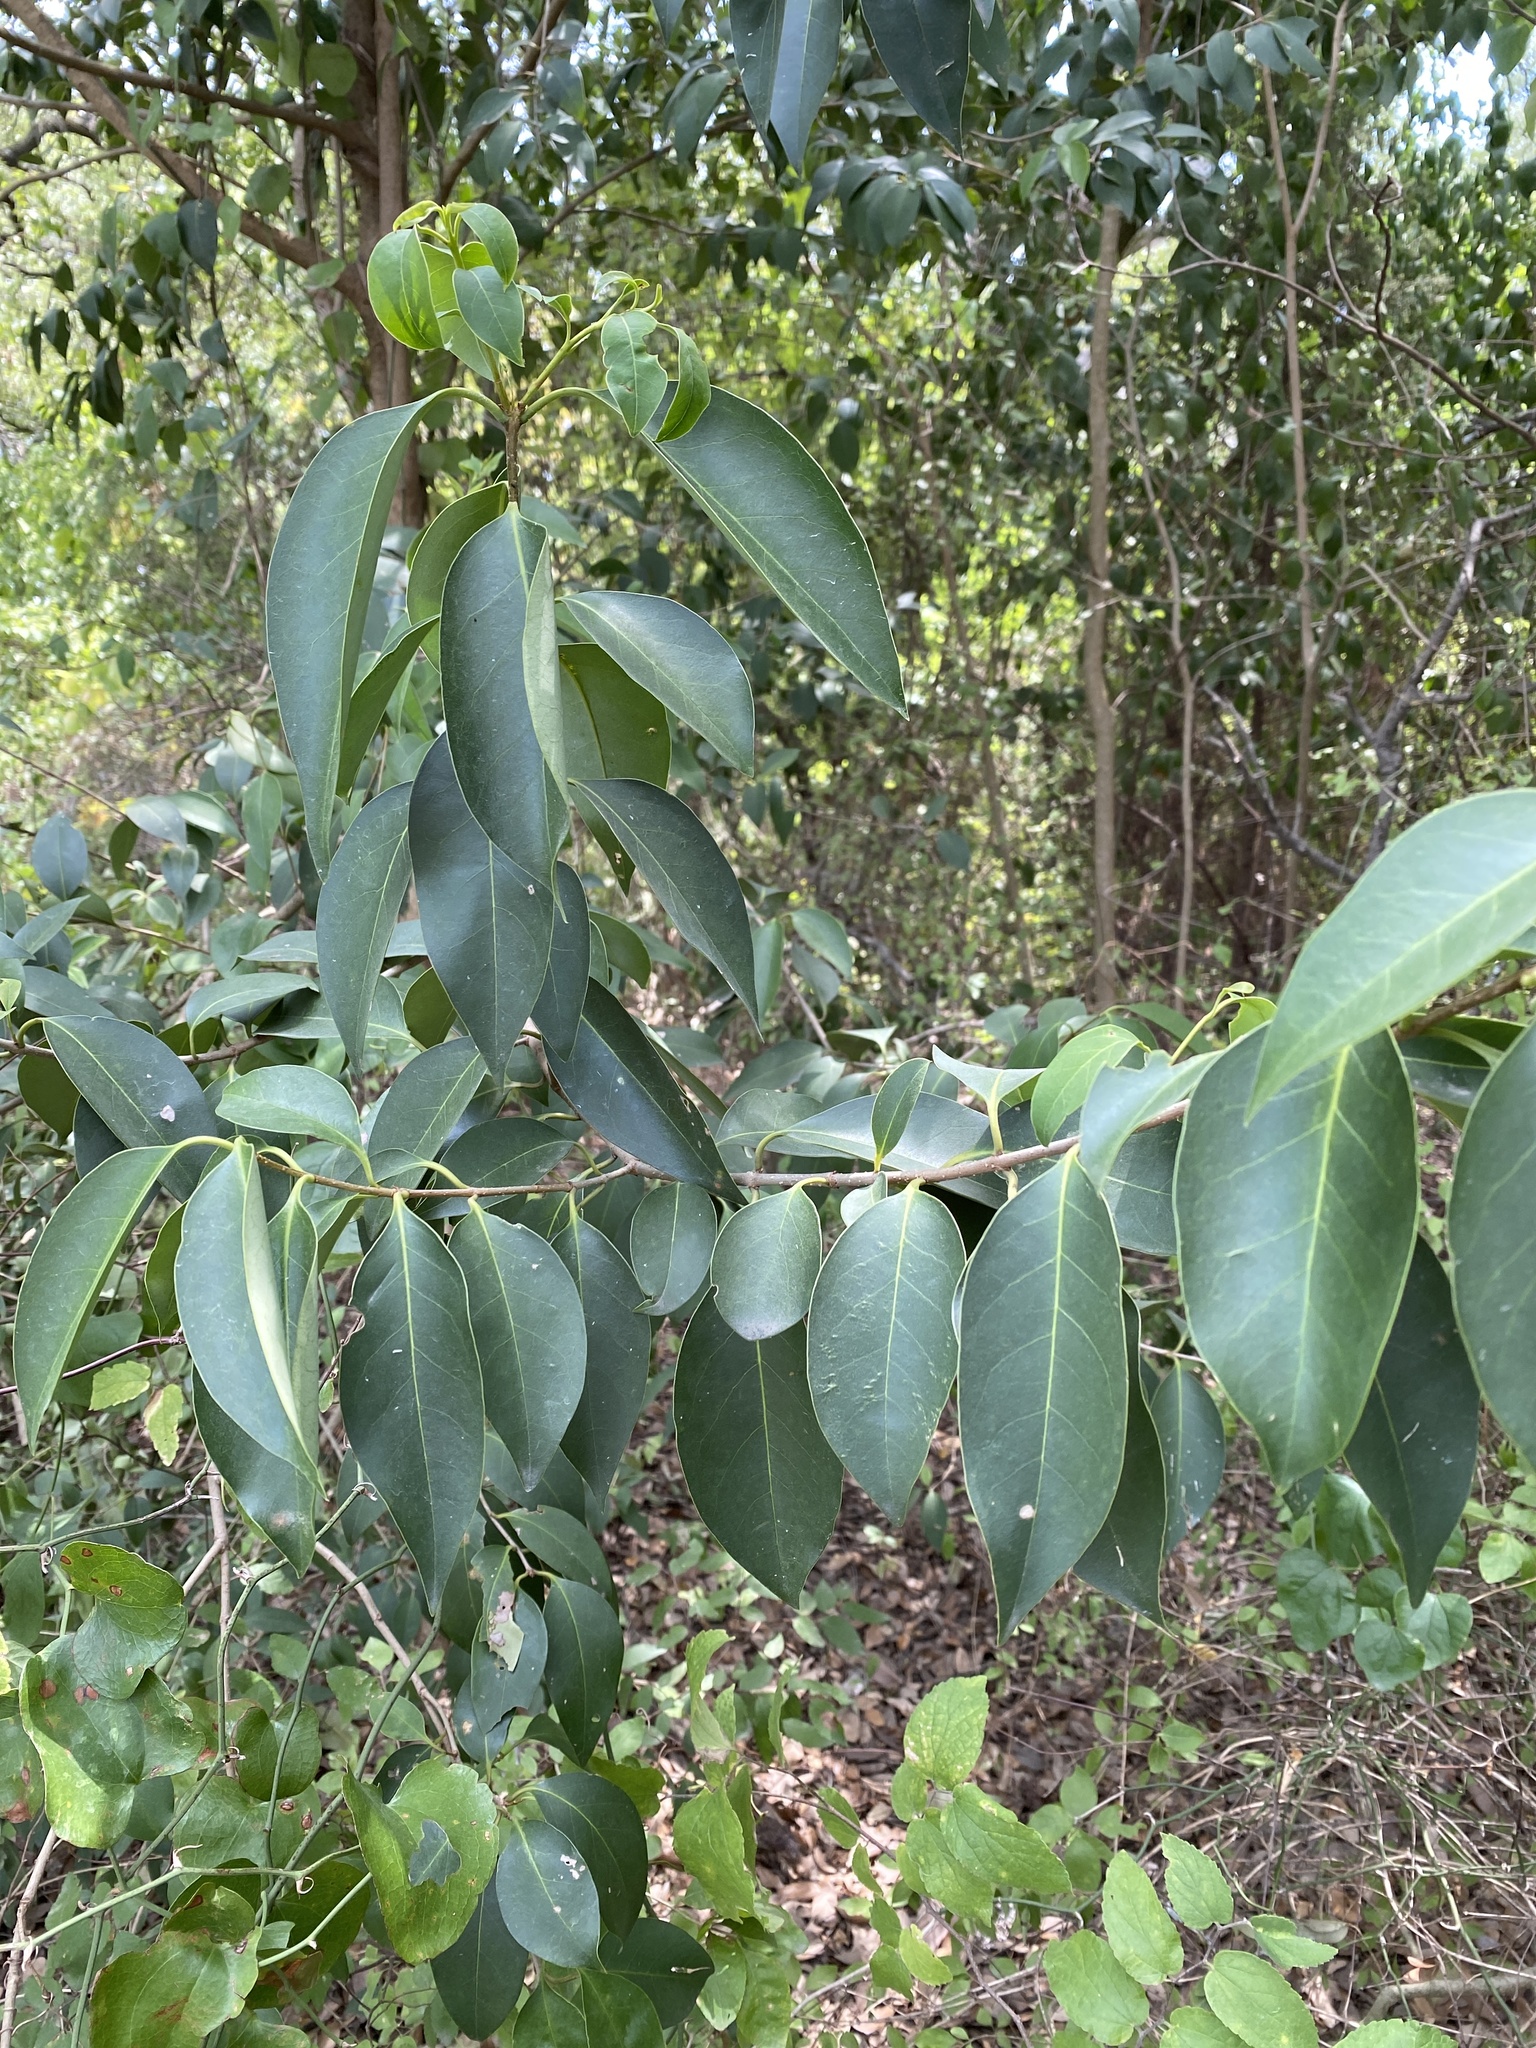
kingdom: Plantae
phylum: Tracheophyta
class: Magnoliopsida
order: Lamiales
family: Oleaceae
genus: Ligustrum
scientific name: Ligustrum lucidum
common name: Glossy privet
